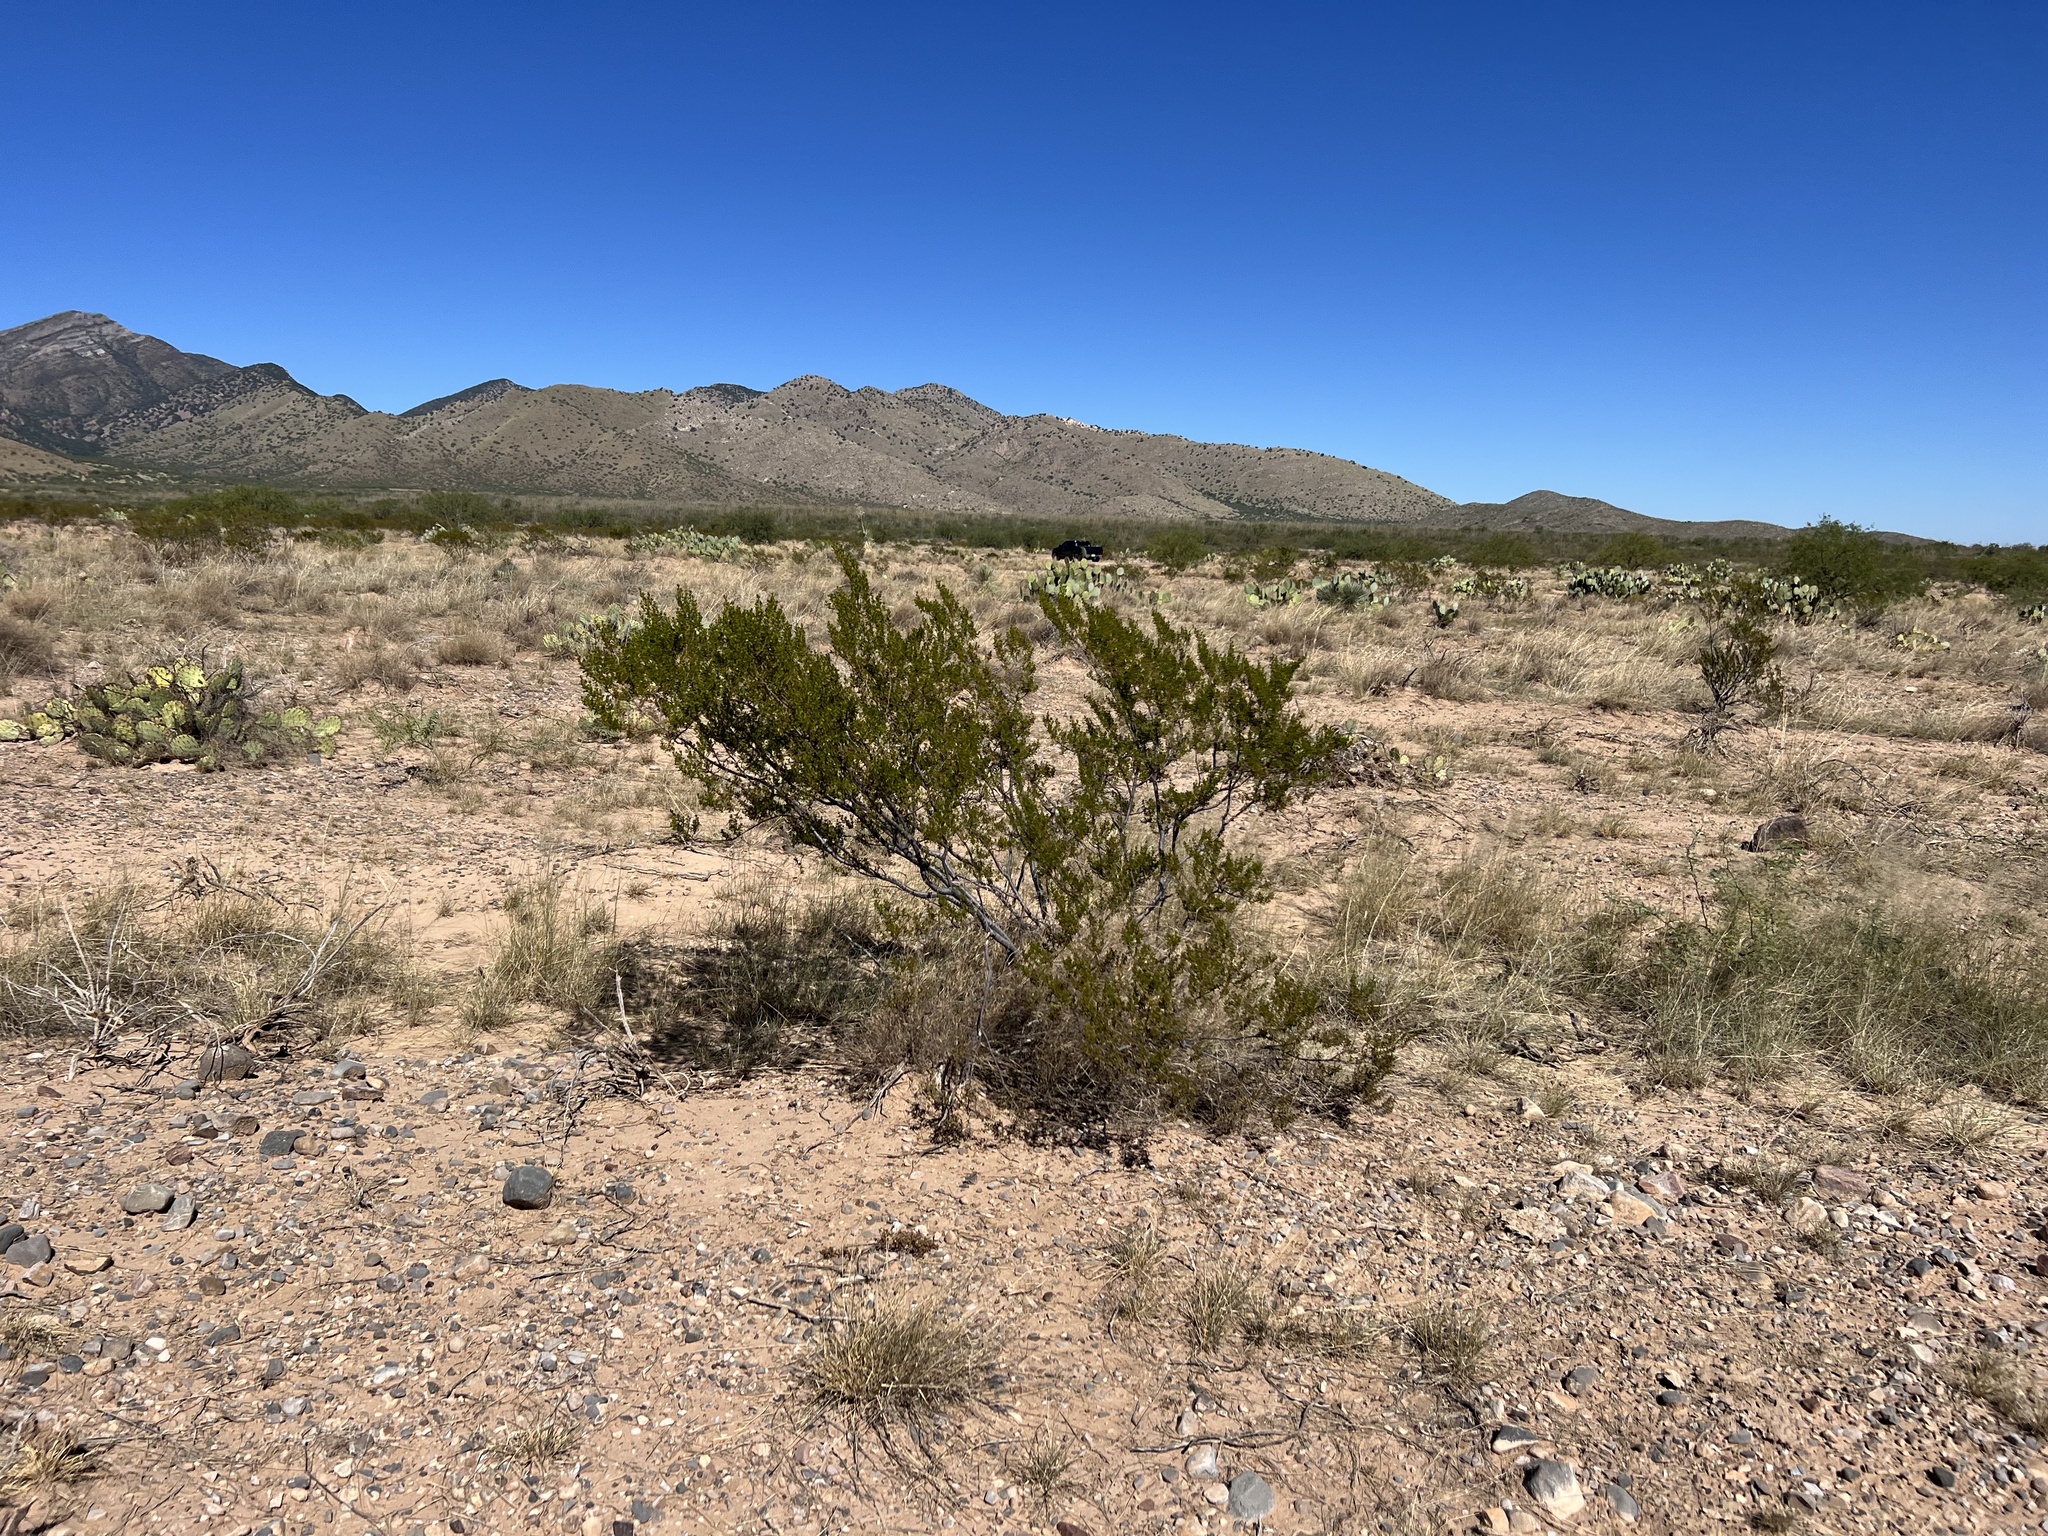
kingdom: Plantae
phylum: Tracheophyta
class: Magnoliopsida
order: Zygophyllales
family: Zygophyllaceae
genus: Larrea
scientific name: Larrea tridentata
